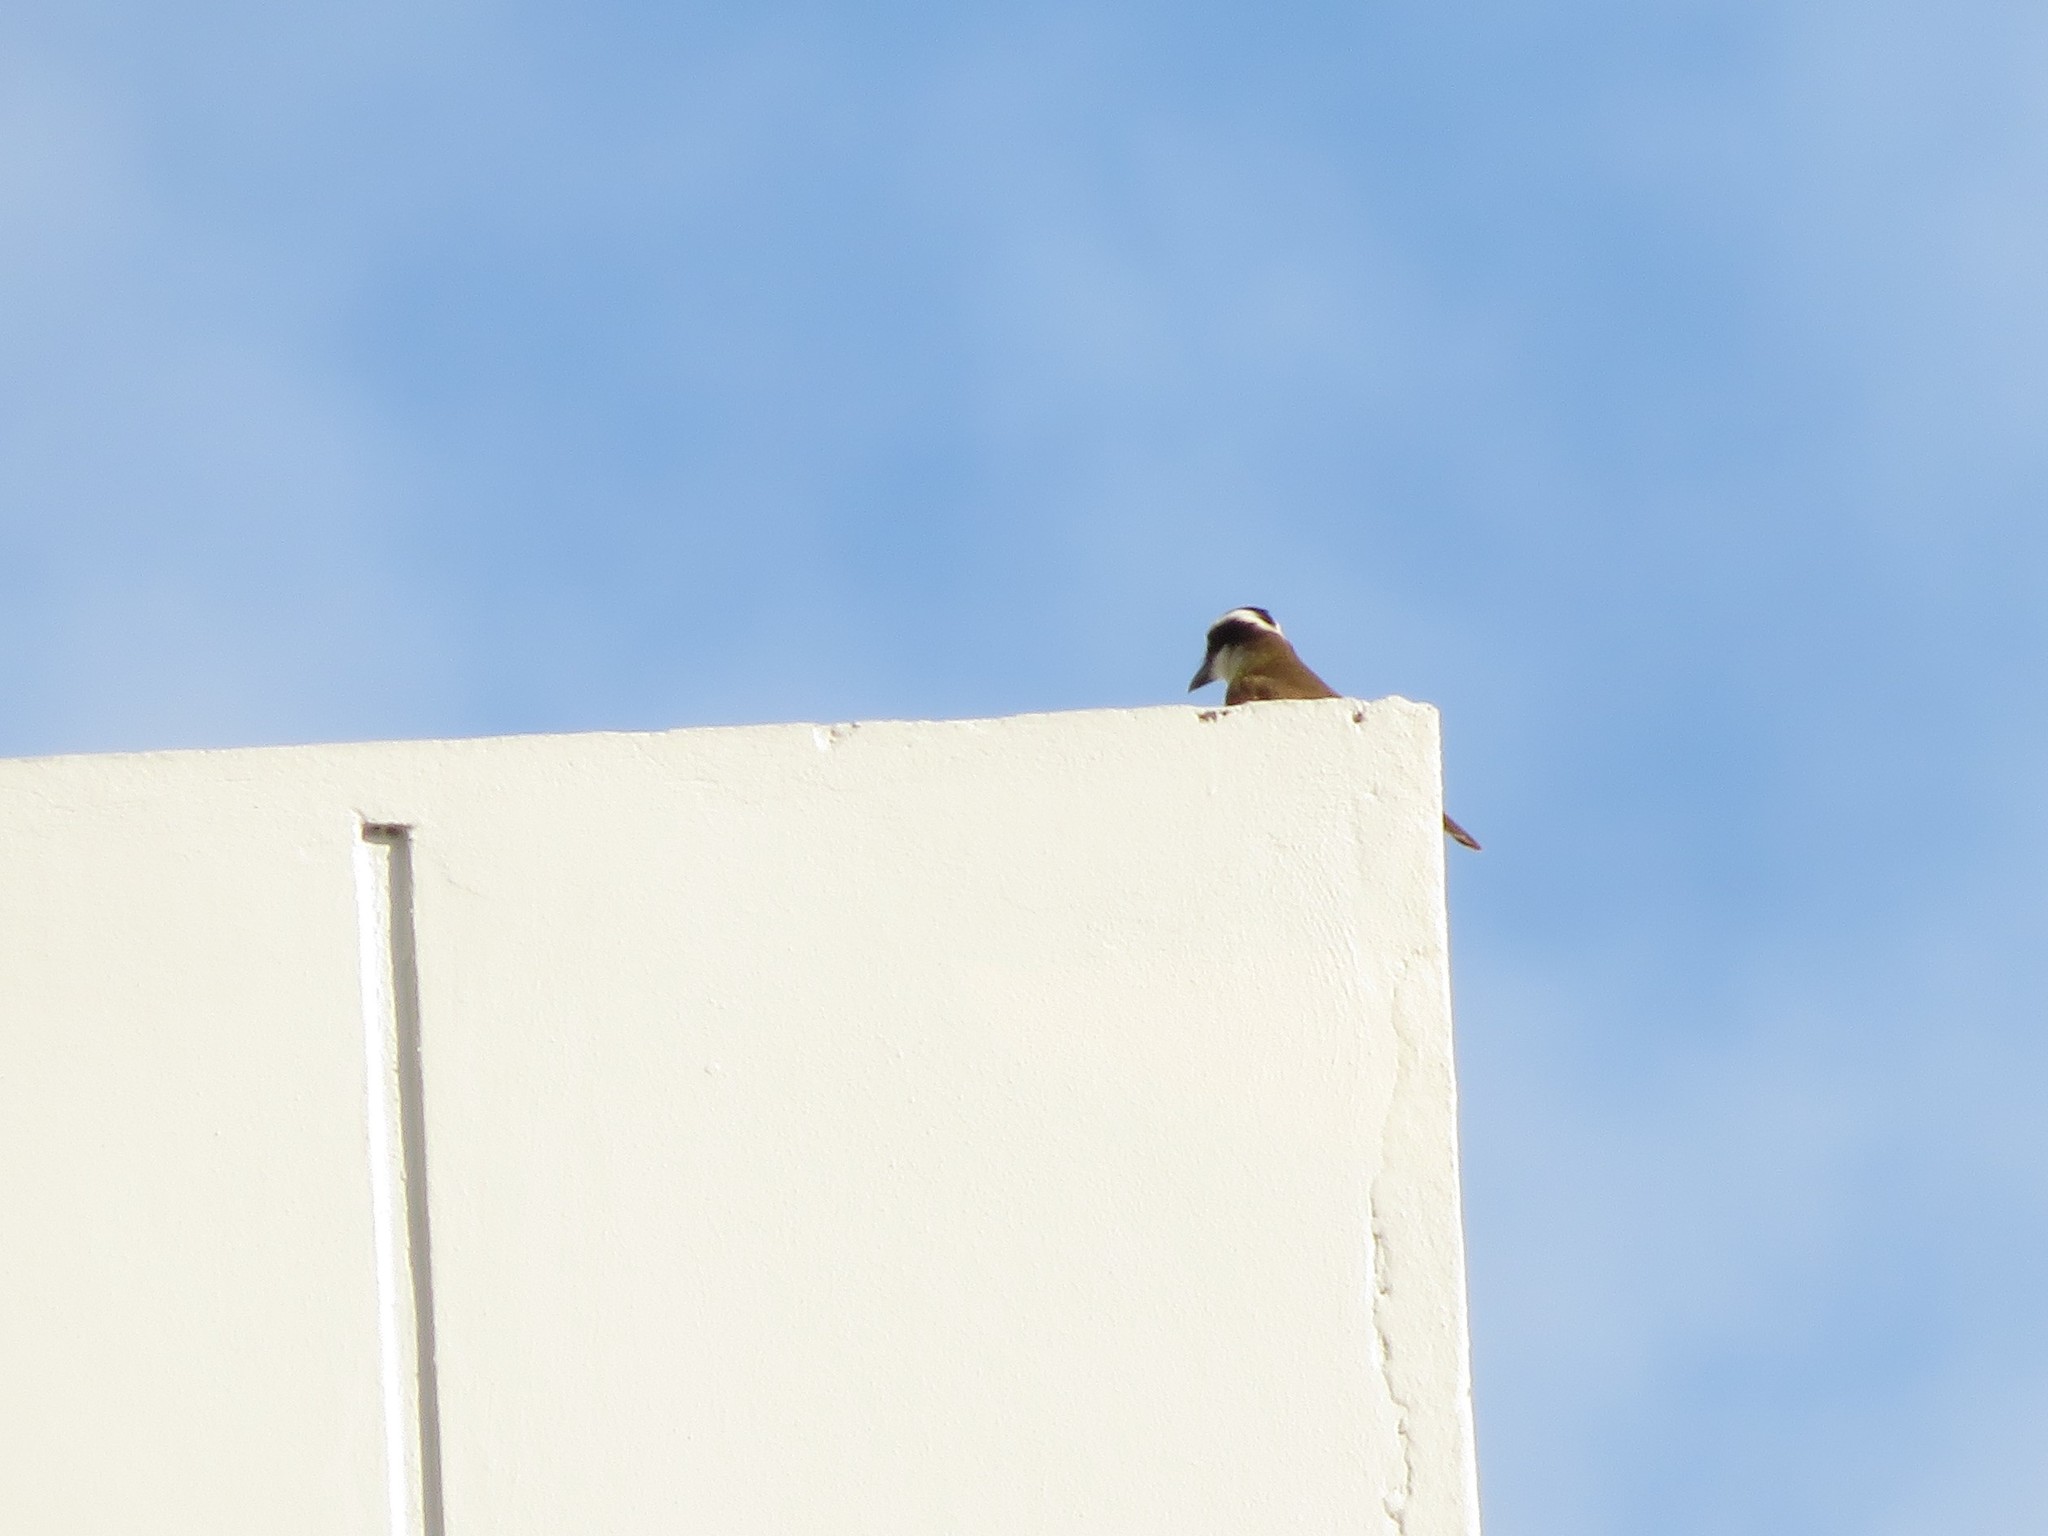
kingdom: Animalia
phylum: Chordata
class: Aves
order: Passeriformes
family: Tyrannidae
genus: Pitangus
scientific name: Pitangus sulphuratus
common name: Great kiskadee
